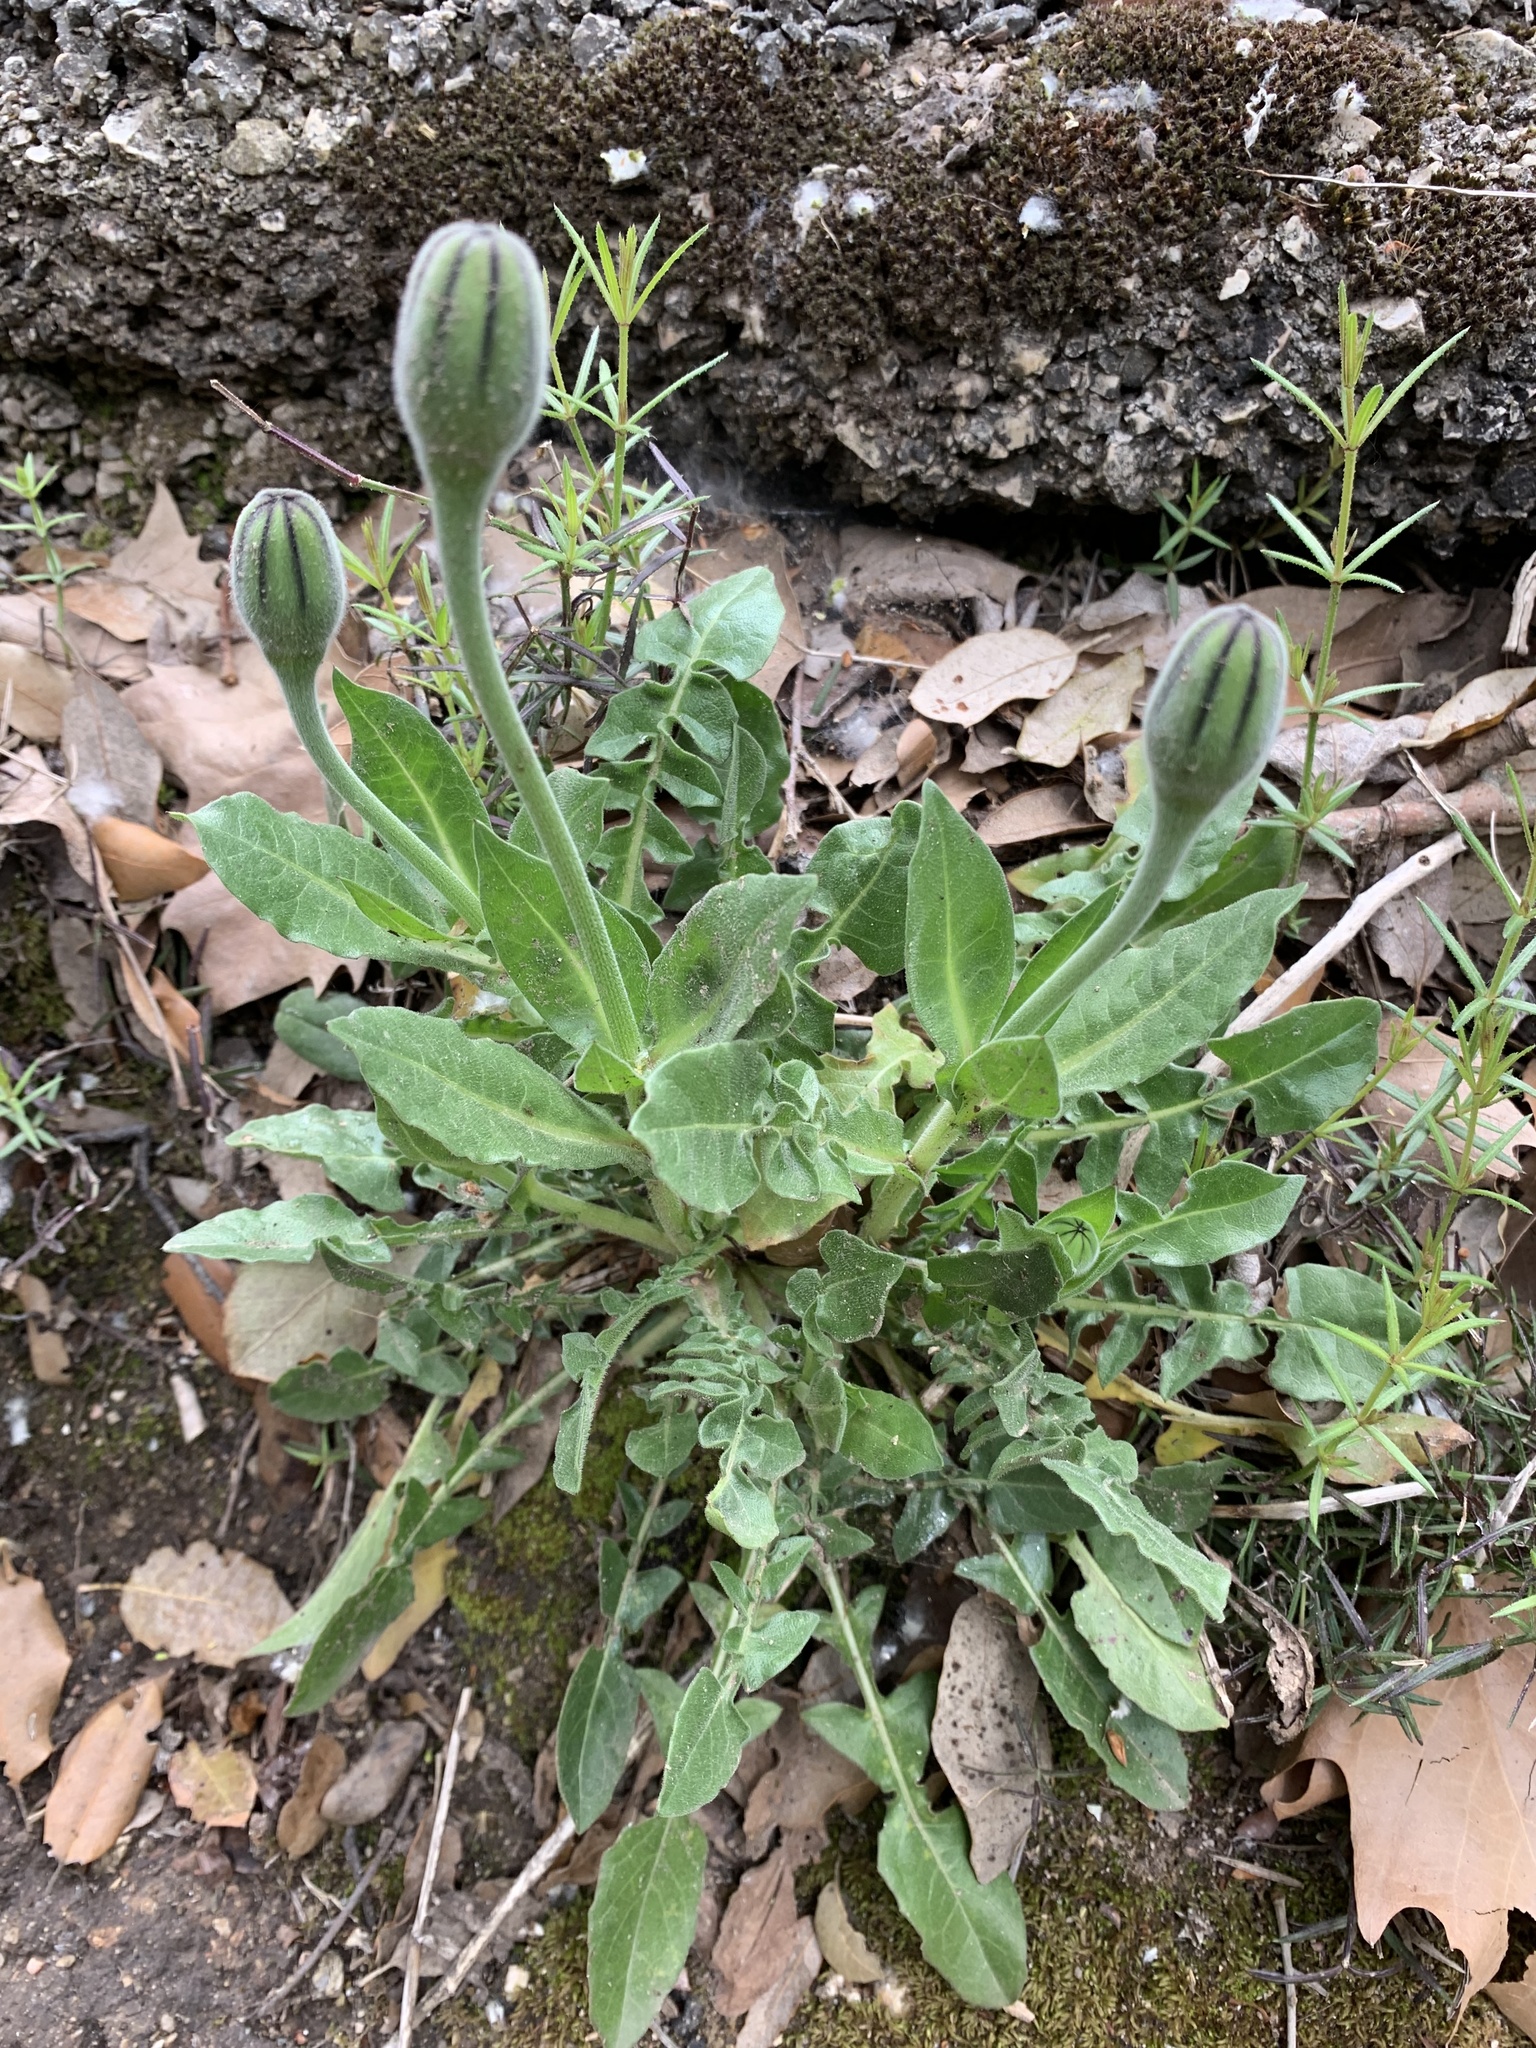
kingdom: Plantae
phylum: Tracheophyta
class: Magnoliopsida
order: Asterales
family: Asteraceae
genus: Urospermum
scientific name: Urospermum dalechampii
